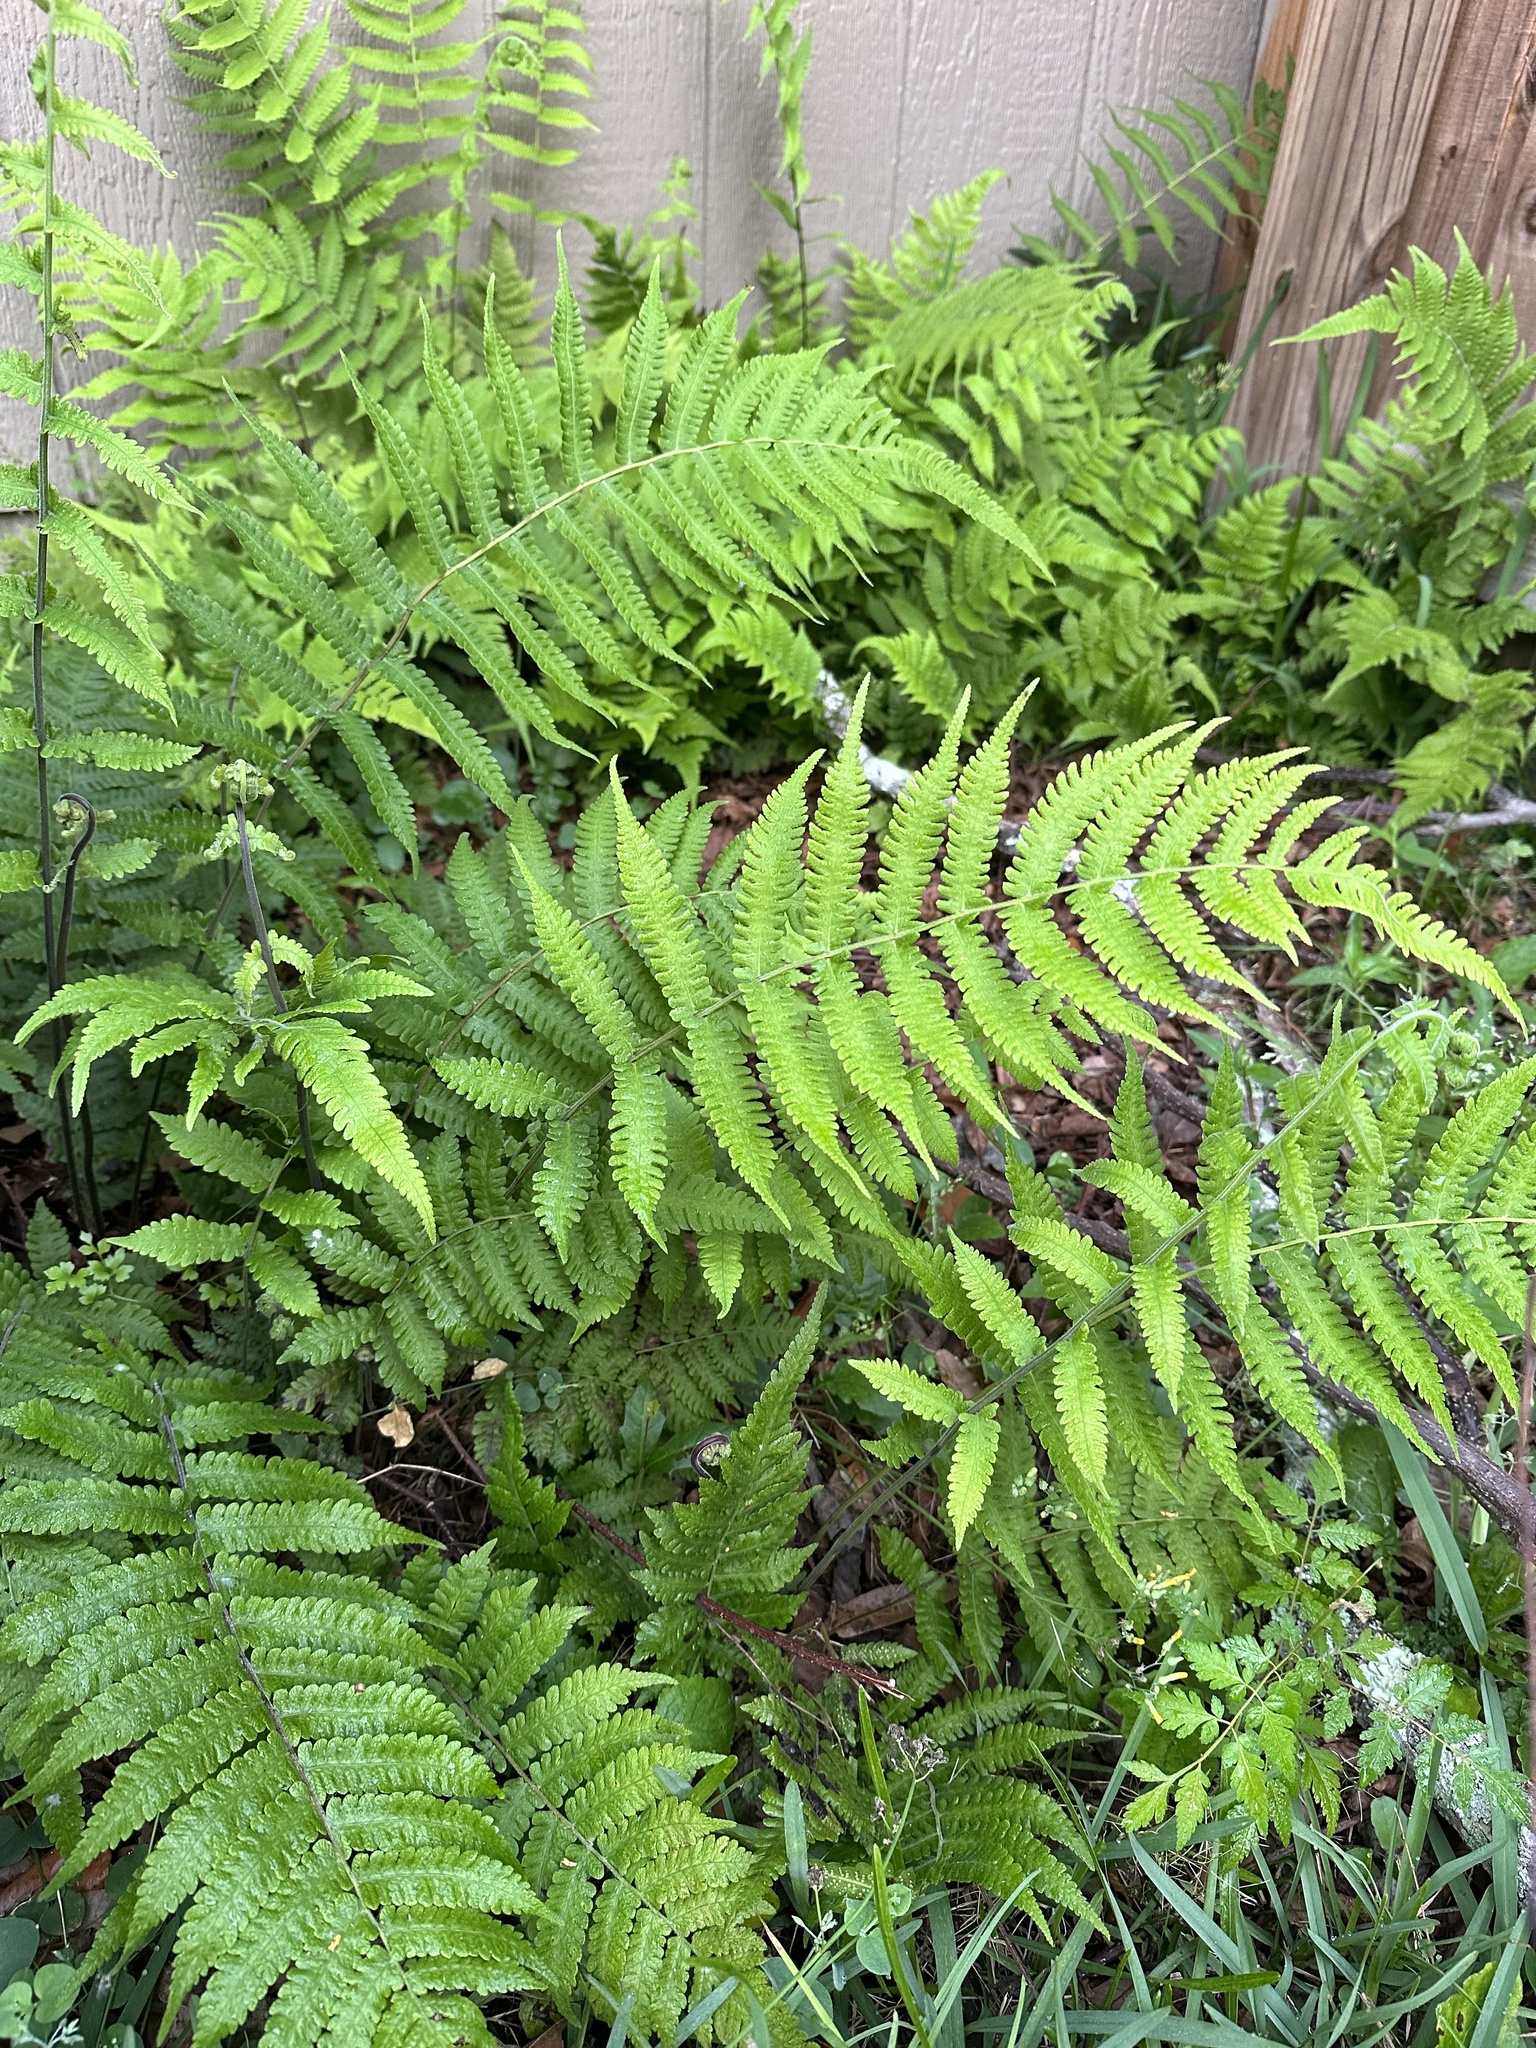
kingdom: Plantae
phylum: Tracheophyta
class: Polypodiopsida
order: Polypodiales
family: Thelypteridaceae
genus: Christella
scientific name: Christella dentata
